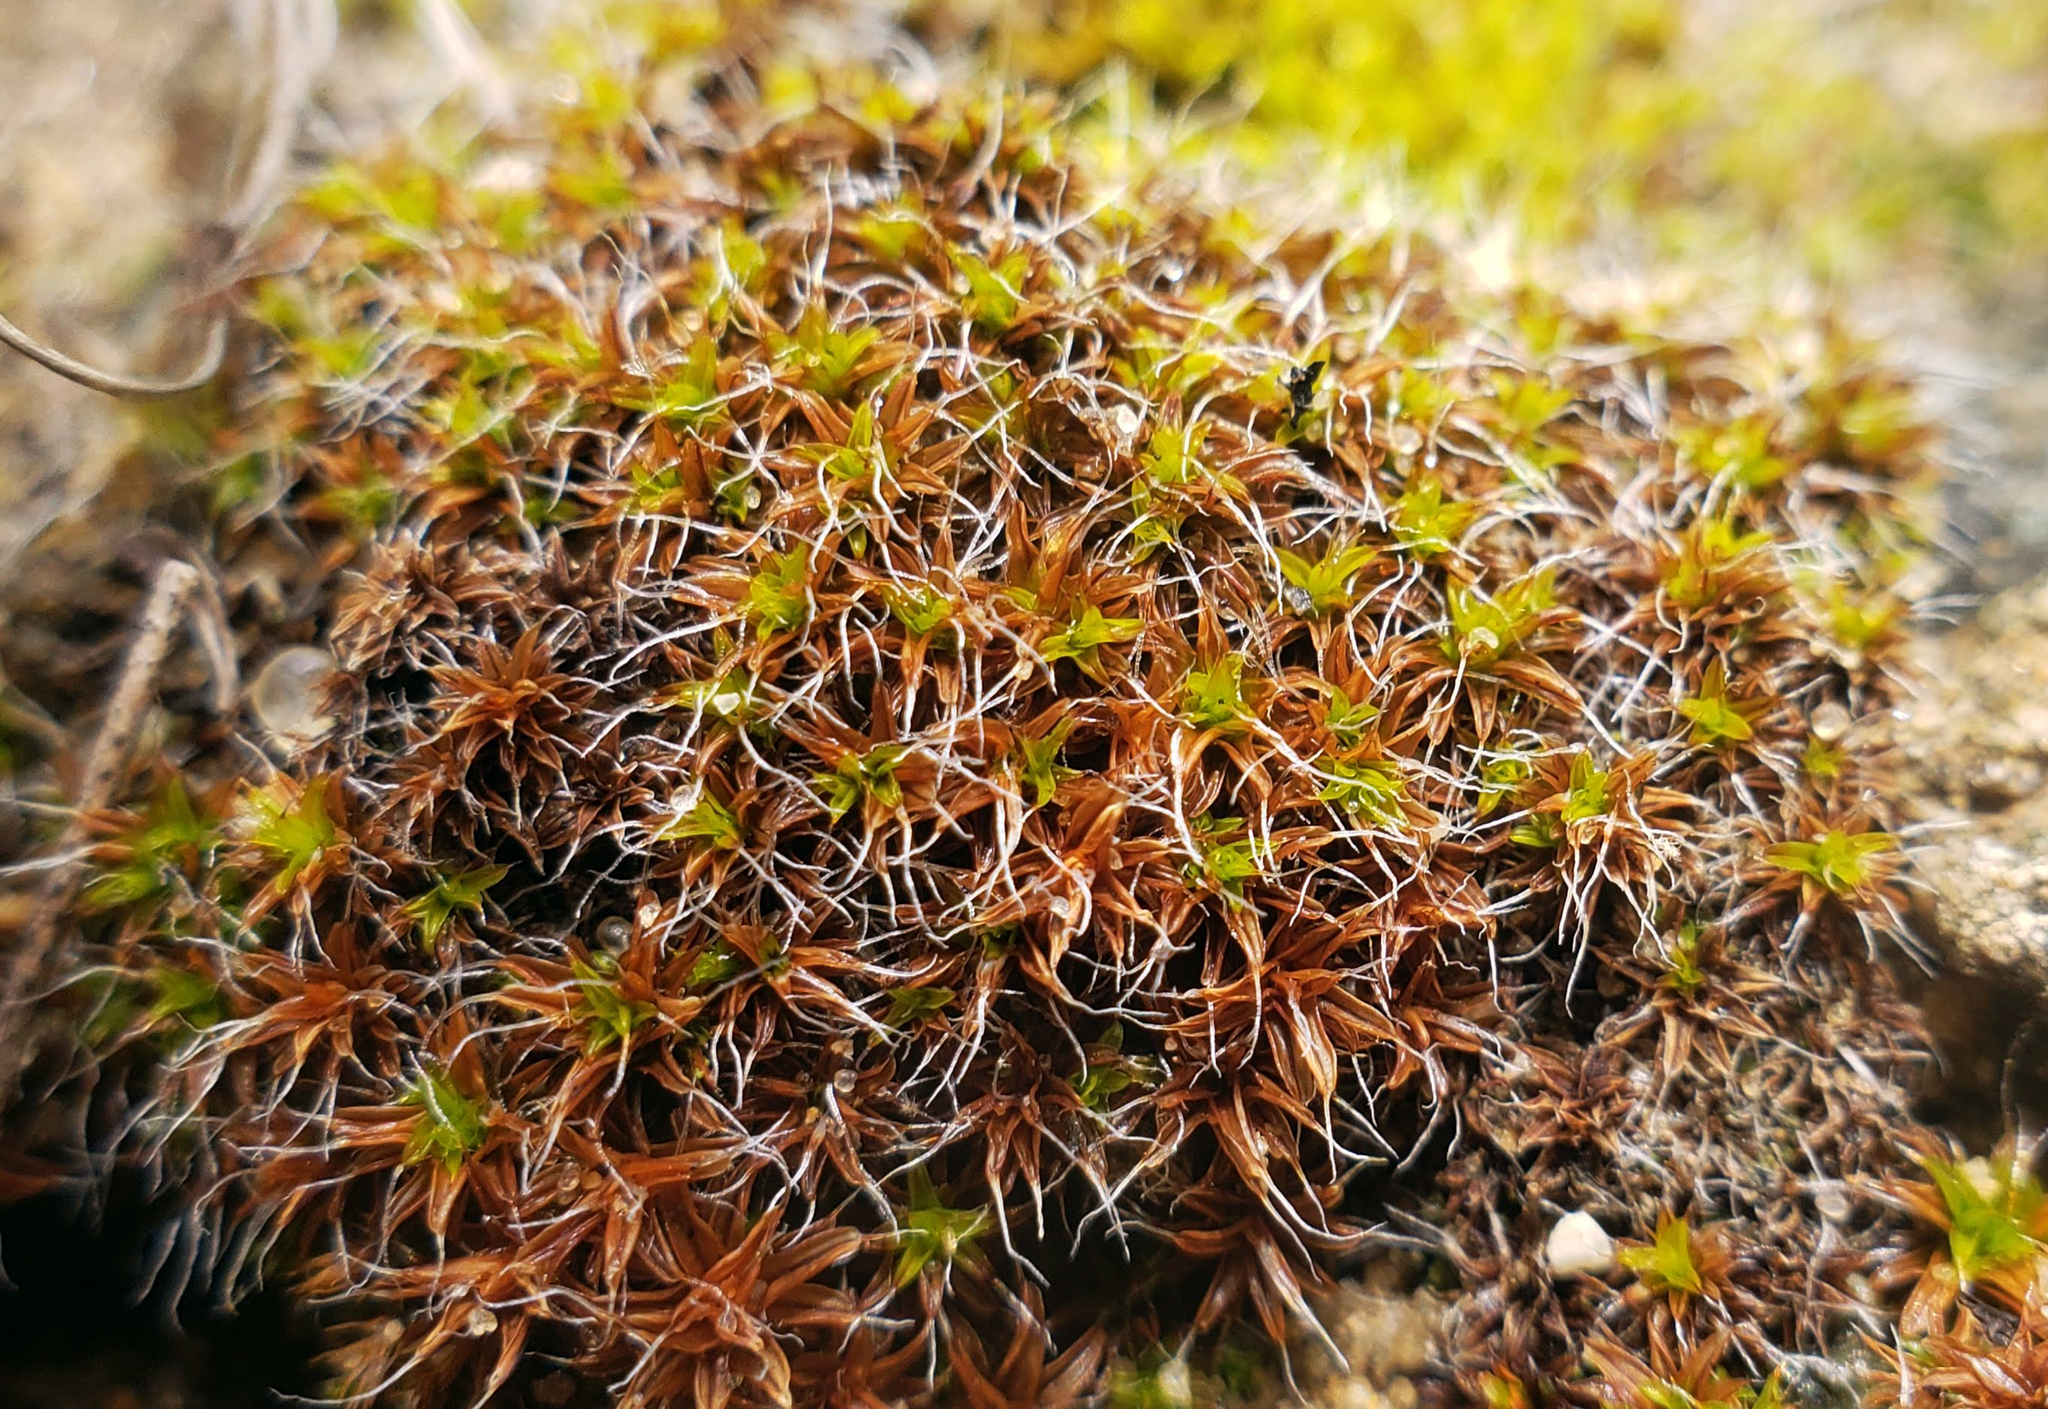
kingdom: Plantae
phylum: Bryophyta
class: Bryopsida
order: Pottiales
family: Pottiaceae
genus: Syntrichia
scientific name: Syntrichia ruralis
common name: Sidewalk screw moss
